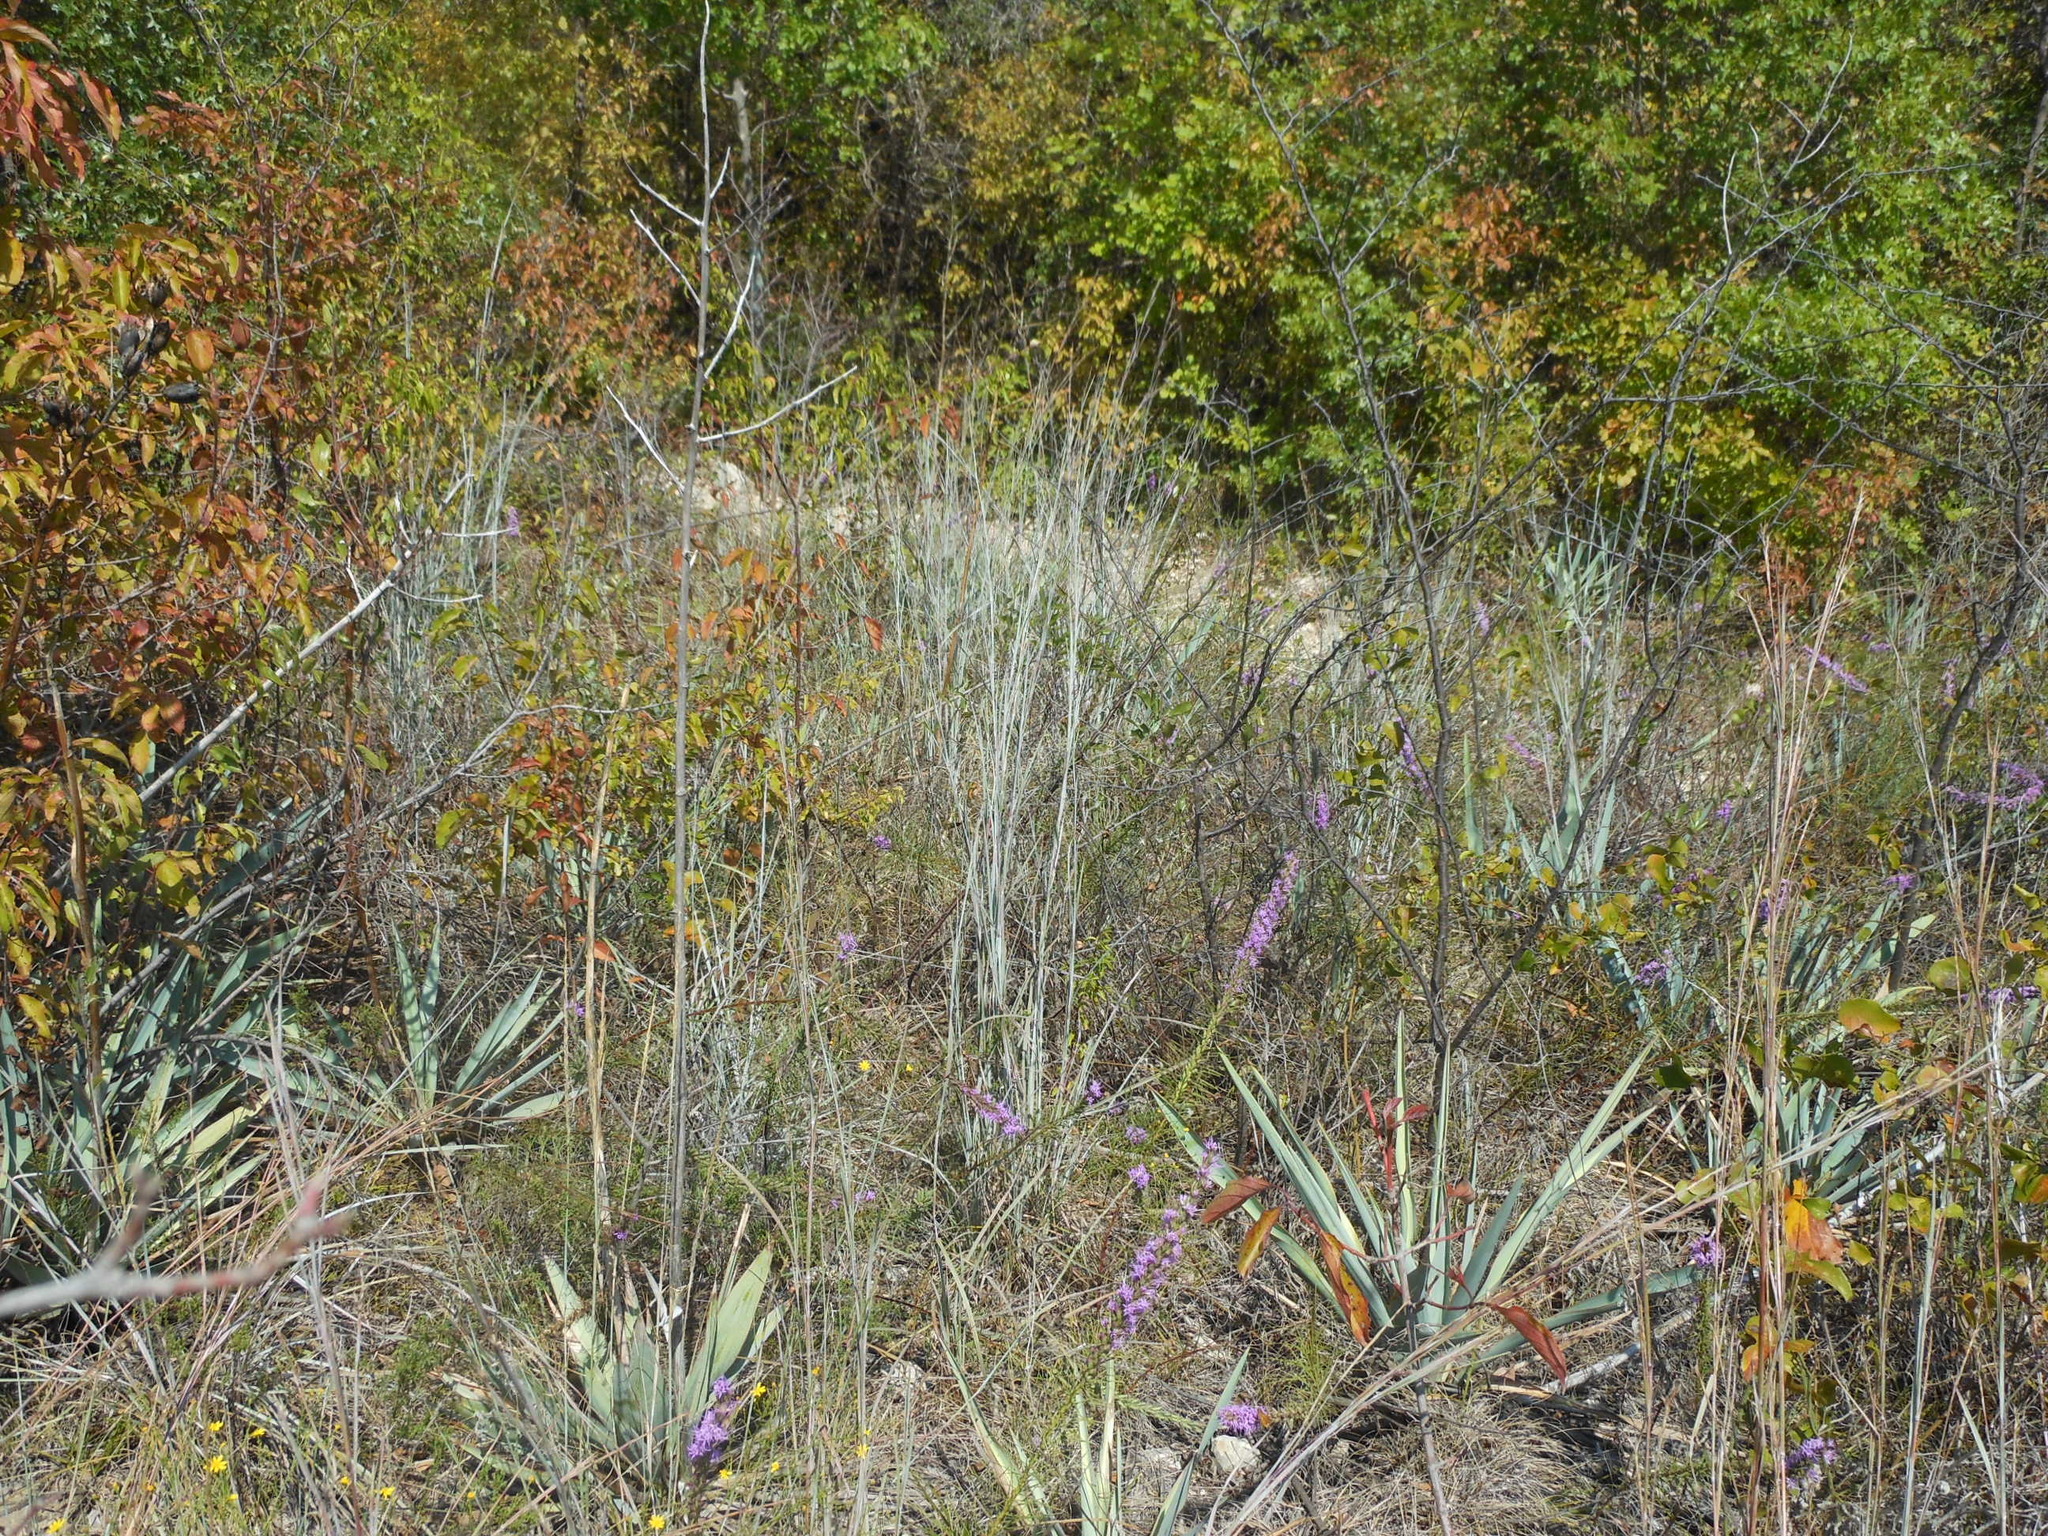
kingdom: Plantae
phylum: Tracheophyta
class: Liliopsida
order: Poales
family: Poaceae
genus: Schizachyrium
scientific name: Schizachyrium scoparium
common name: Little bluestem
